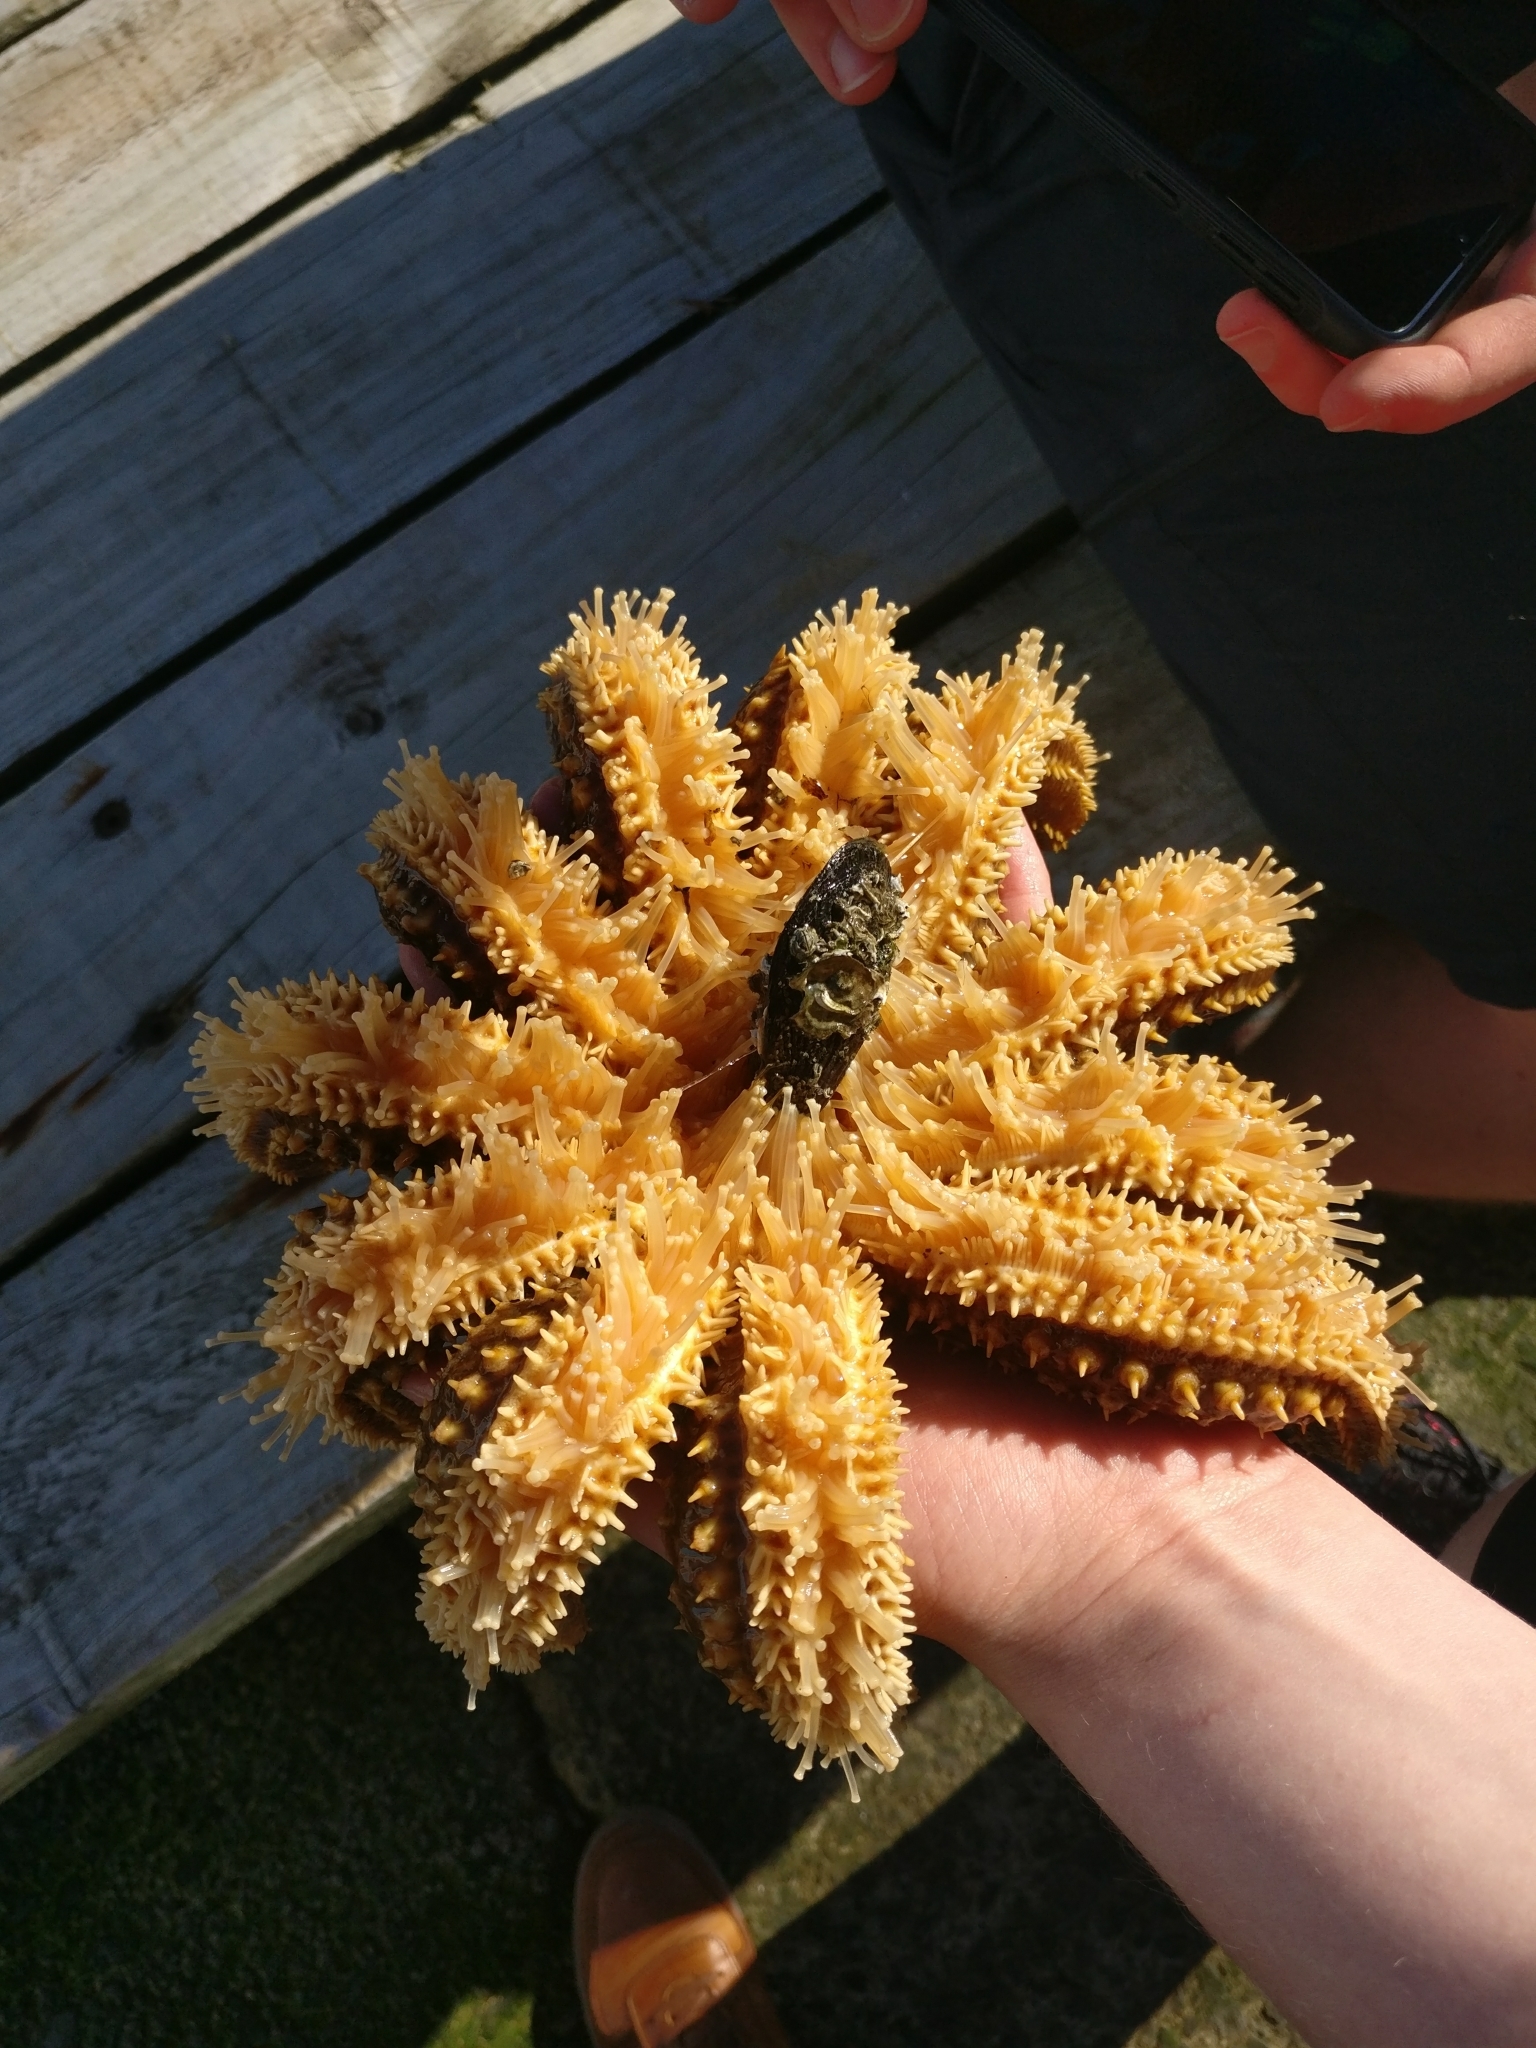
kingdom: Animalia
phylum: Echinodermata
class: Asteroidea
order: Forcipulatida
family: Asteriidae
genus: Coscinasterias
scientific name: Coscinasterias muricata
